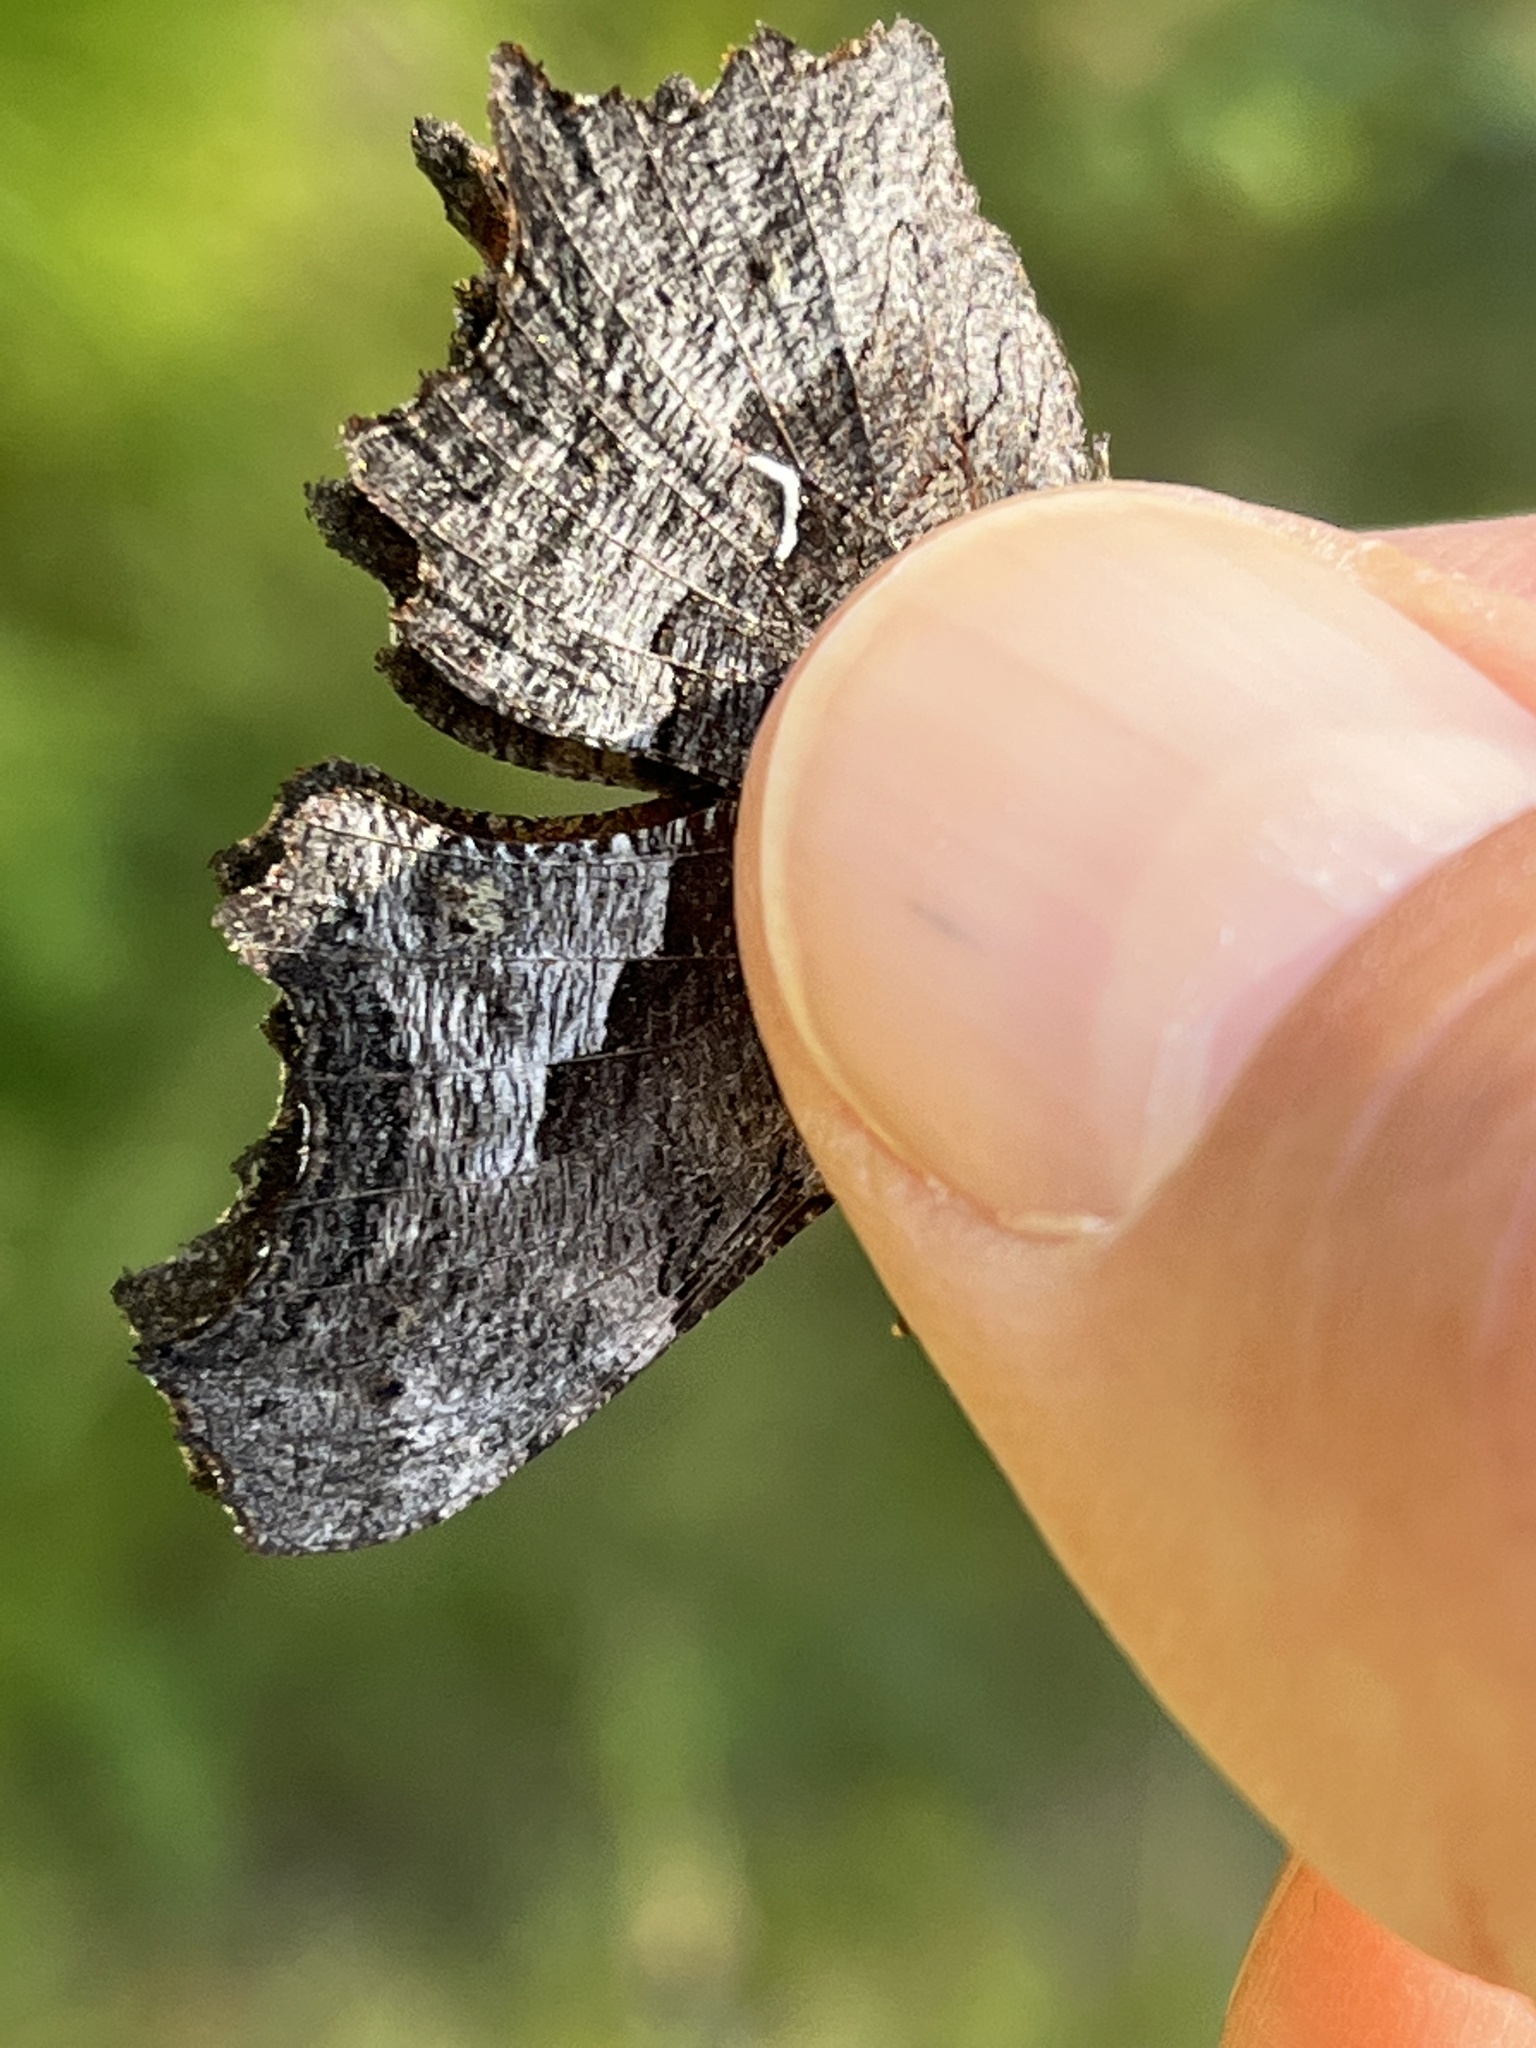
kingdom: Animalia
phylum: Arthropoda
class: Insecta
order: Lepidoptera
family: Nymphalidae
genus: Polygonia
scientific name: Polygonia gracilis
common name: Hoary comma
